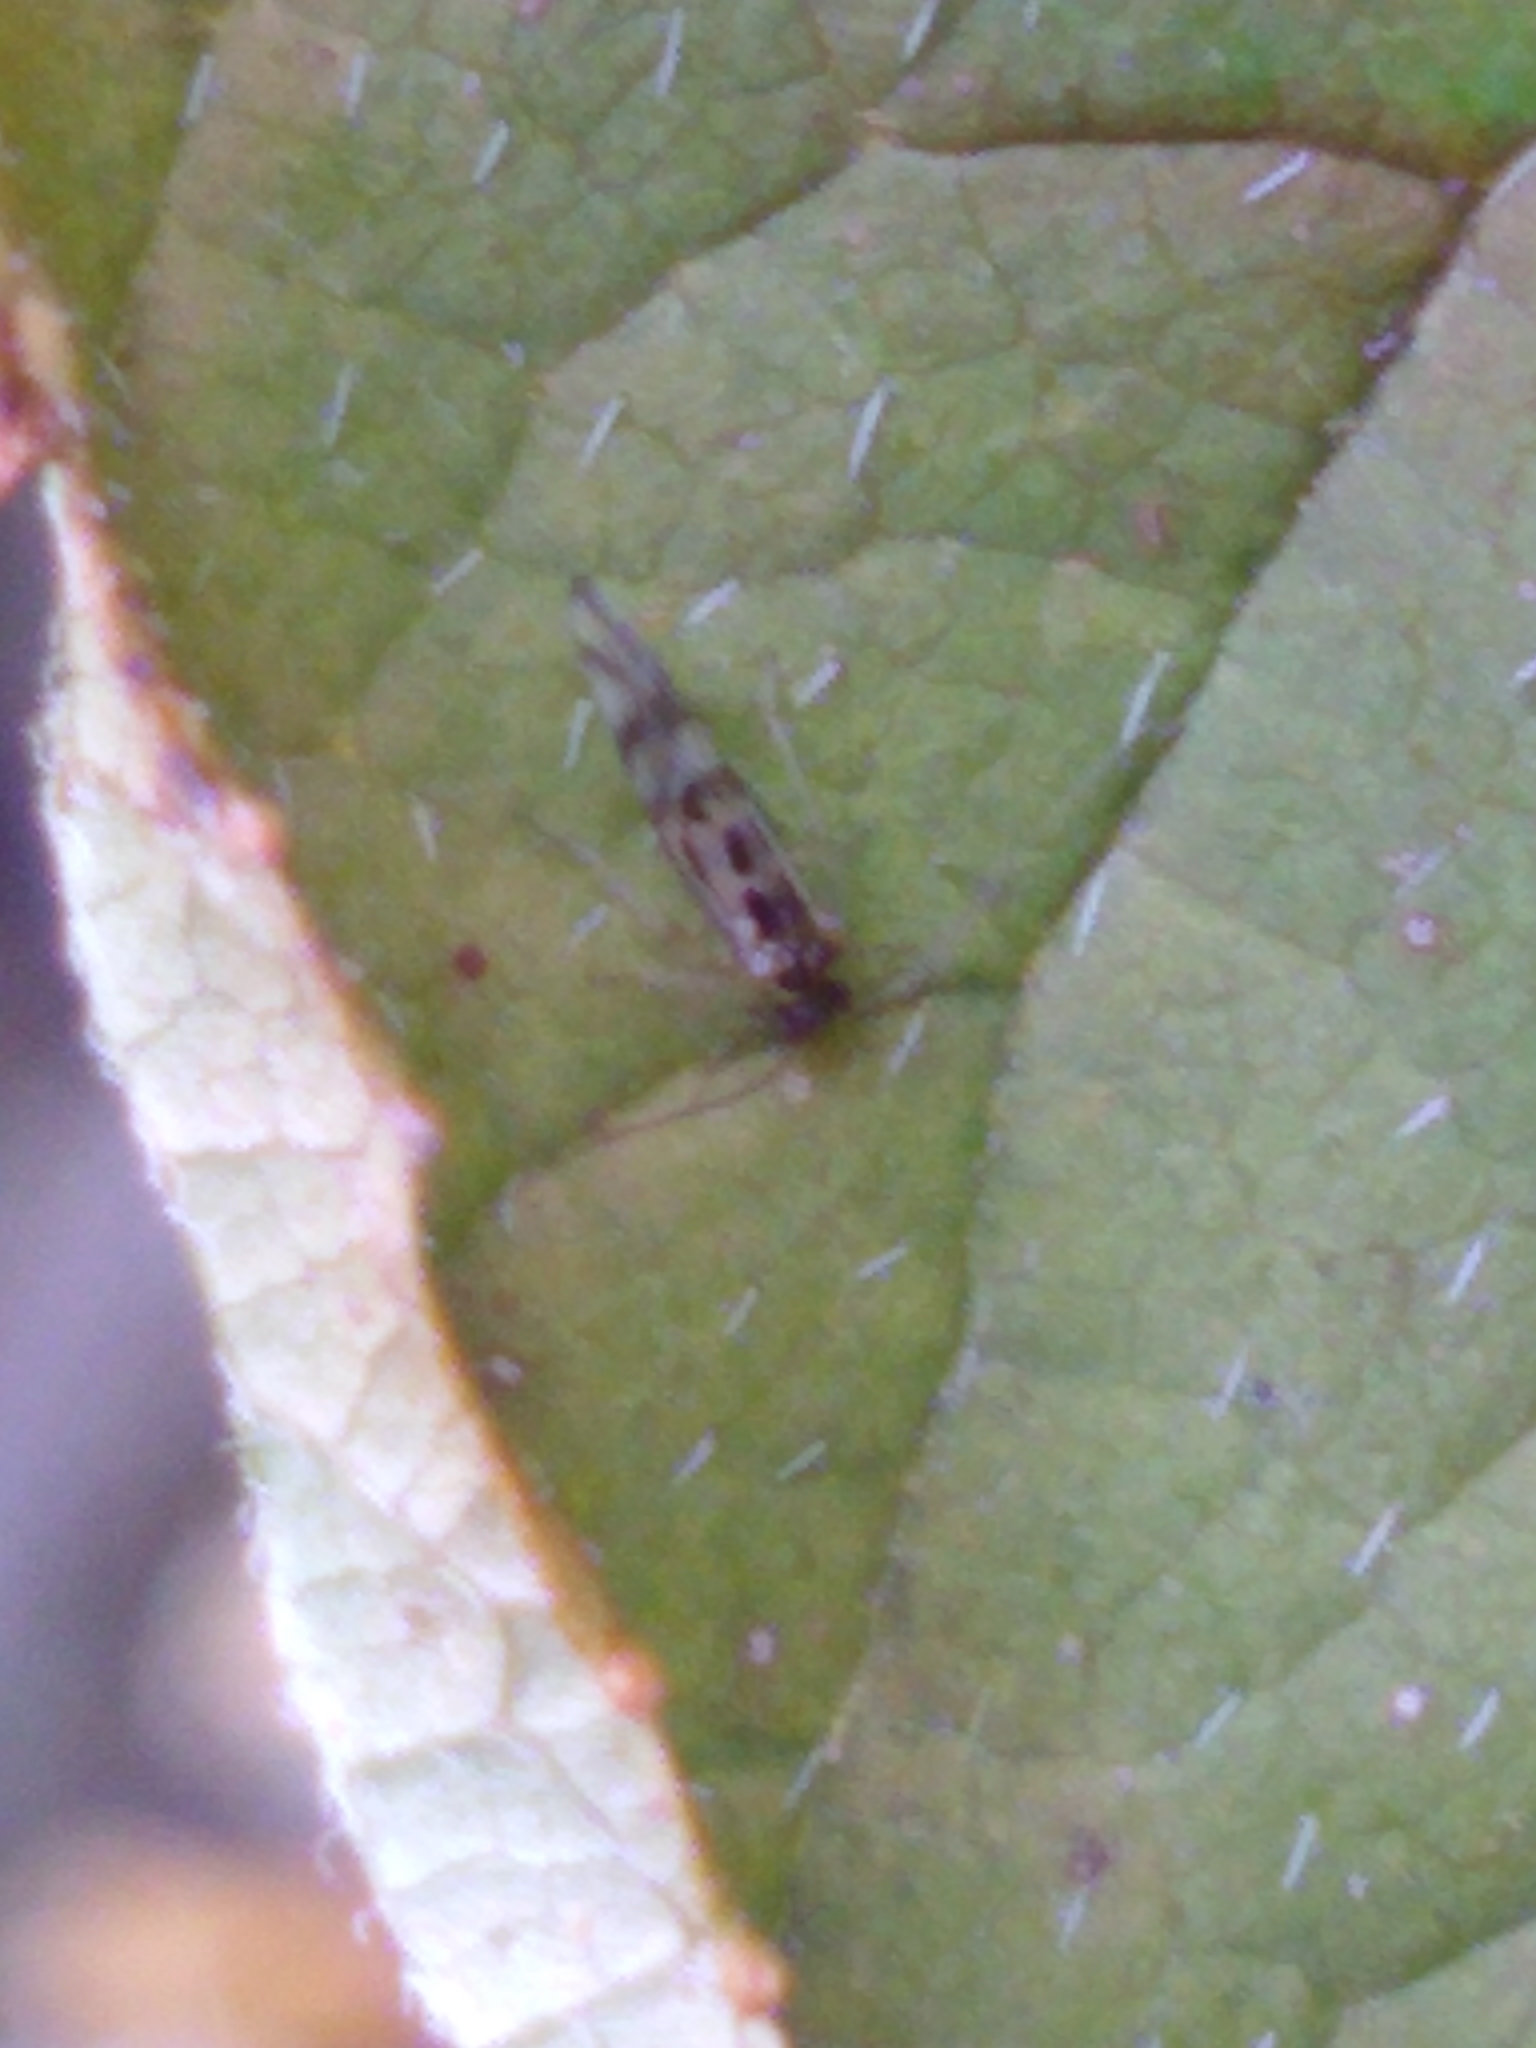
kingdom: Animalia
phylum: Arthropoda
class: Insecta
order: Psocodea
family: Stenopsocidae
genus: Graphopsocus
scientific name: Graphopsocus cruciatus
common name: Lizard bark louse
